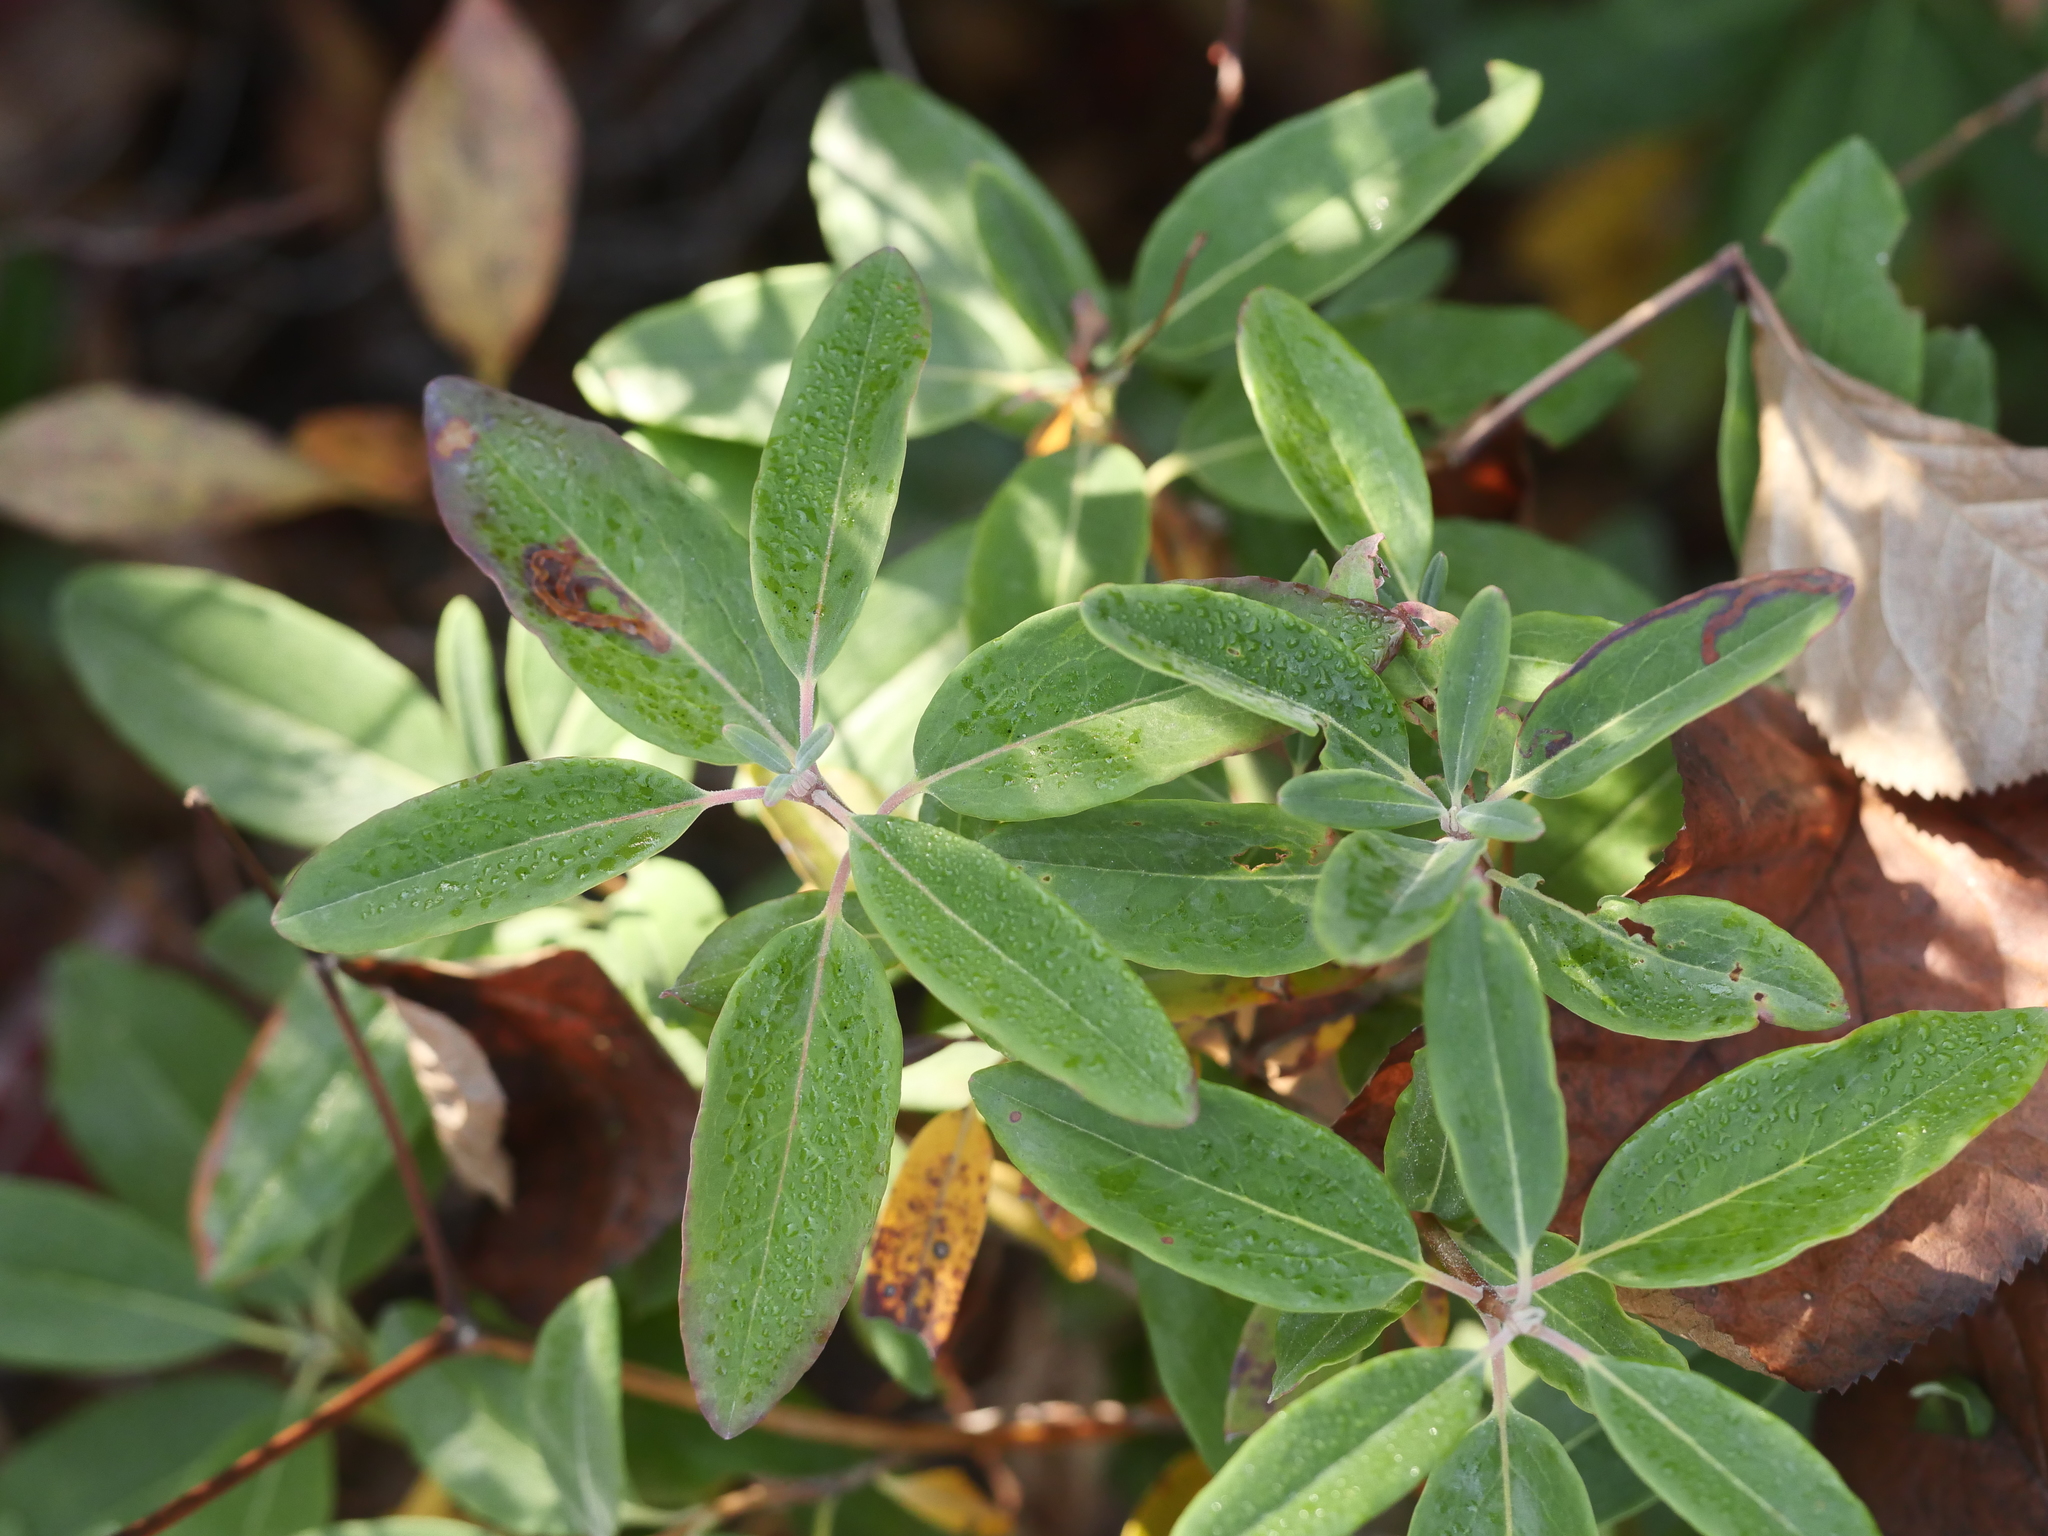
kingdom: Plantae
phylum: Tracheophyta
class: Magnoliopsida
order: Ericales
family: Ericaceae
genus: Kalmia
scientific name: Kalmia angustifolia
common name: Sheep-laurel
